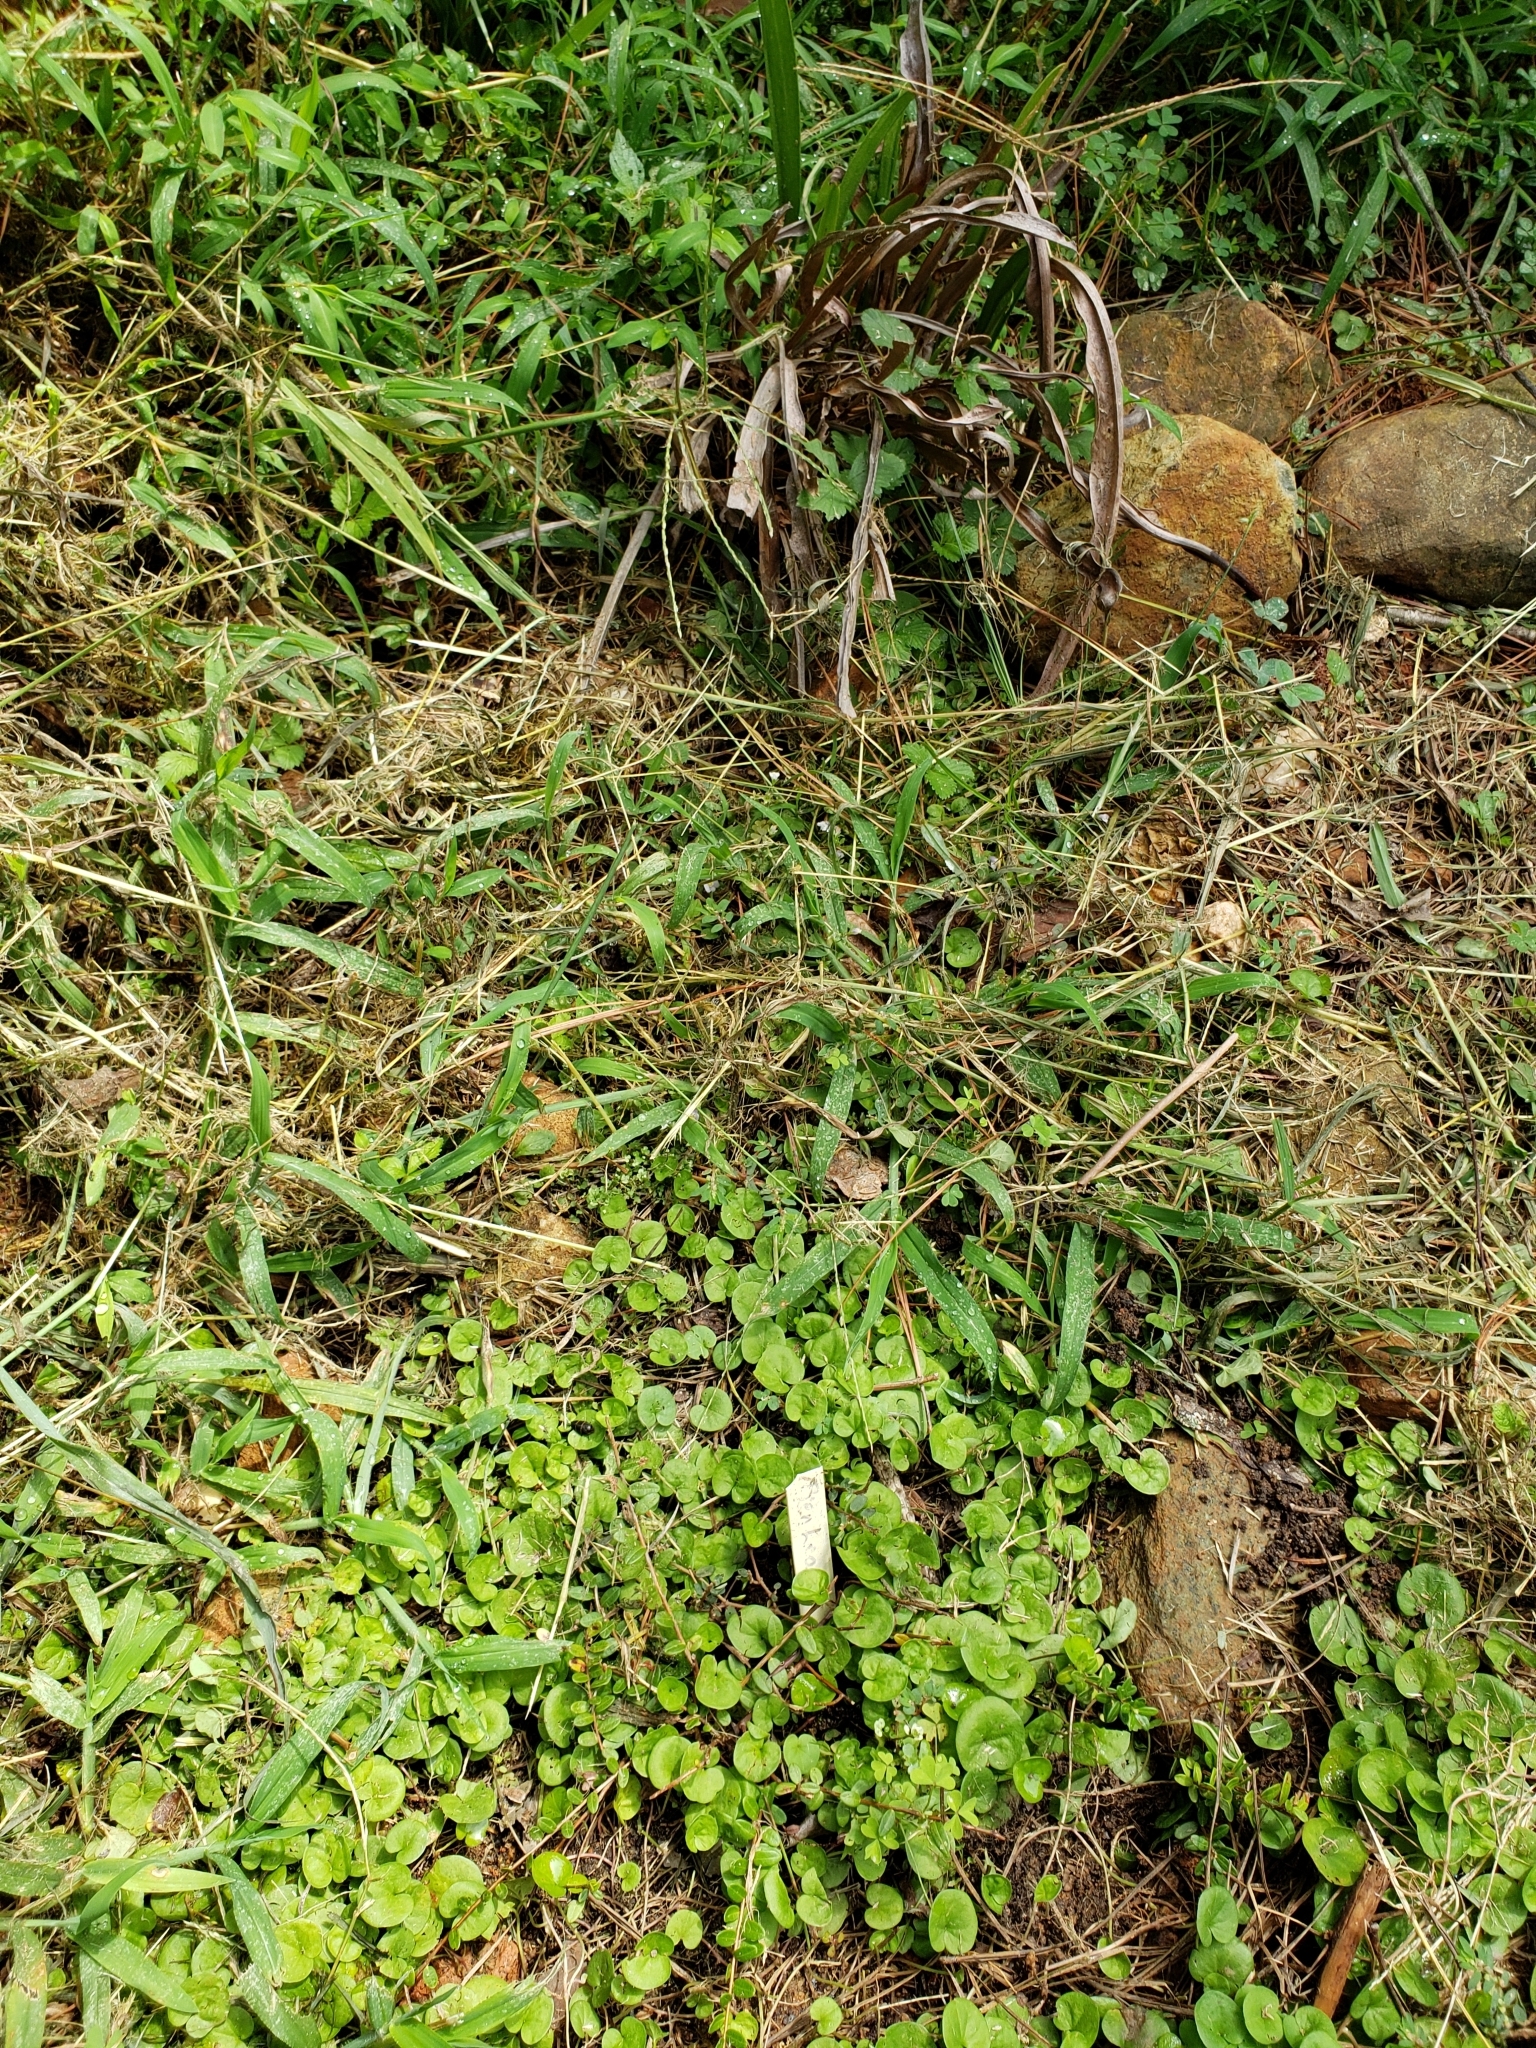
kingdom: Plantae
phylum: Tracheophyta
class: Magnoliopsida
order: Solanales
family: Convolvulaceae
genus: Dichondra
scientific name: Dichondra carolinensis
